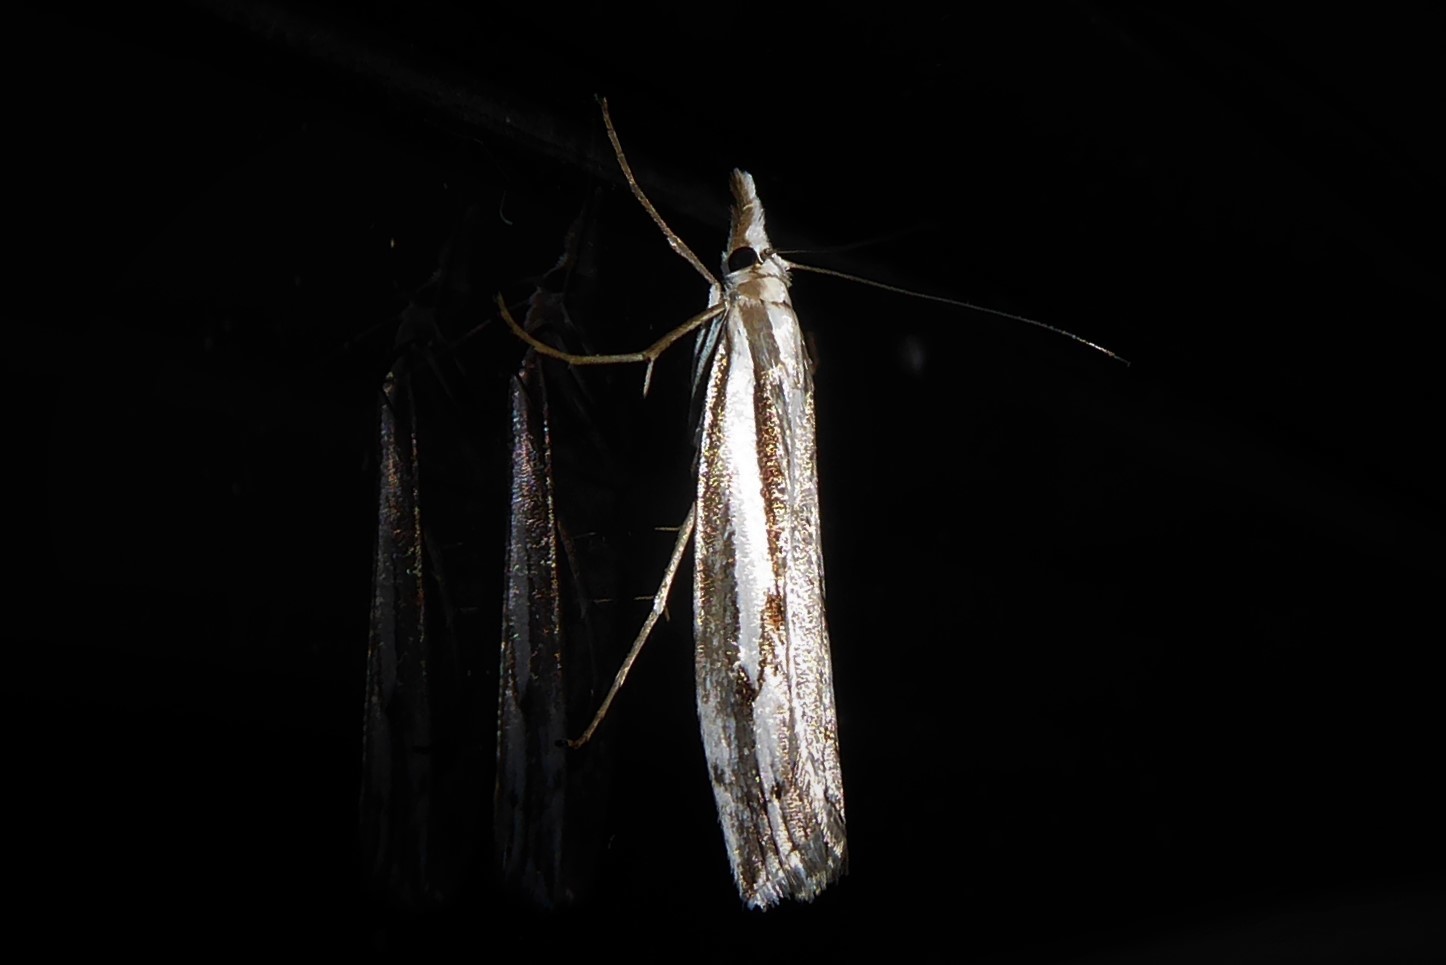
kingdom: Animalia
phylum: Arthropoda
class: Insecta
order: Lepidoptera
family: Crambidae
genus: Orocrambus
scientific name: Orocrambus vittellus
